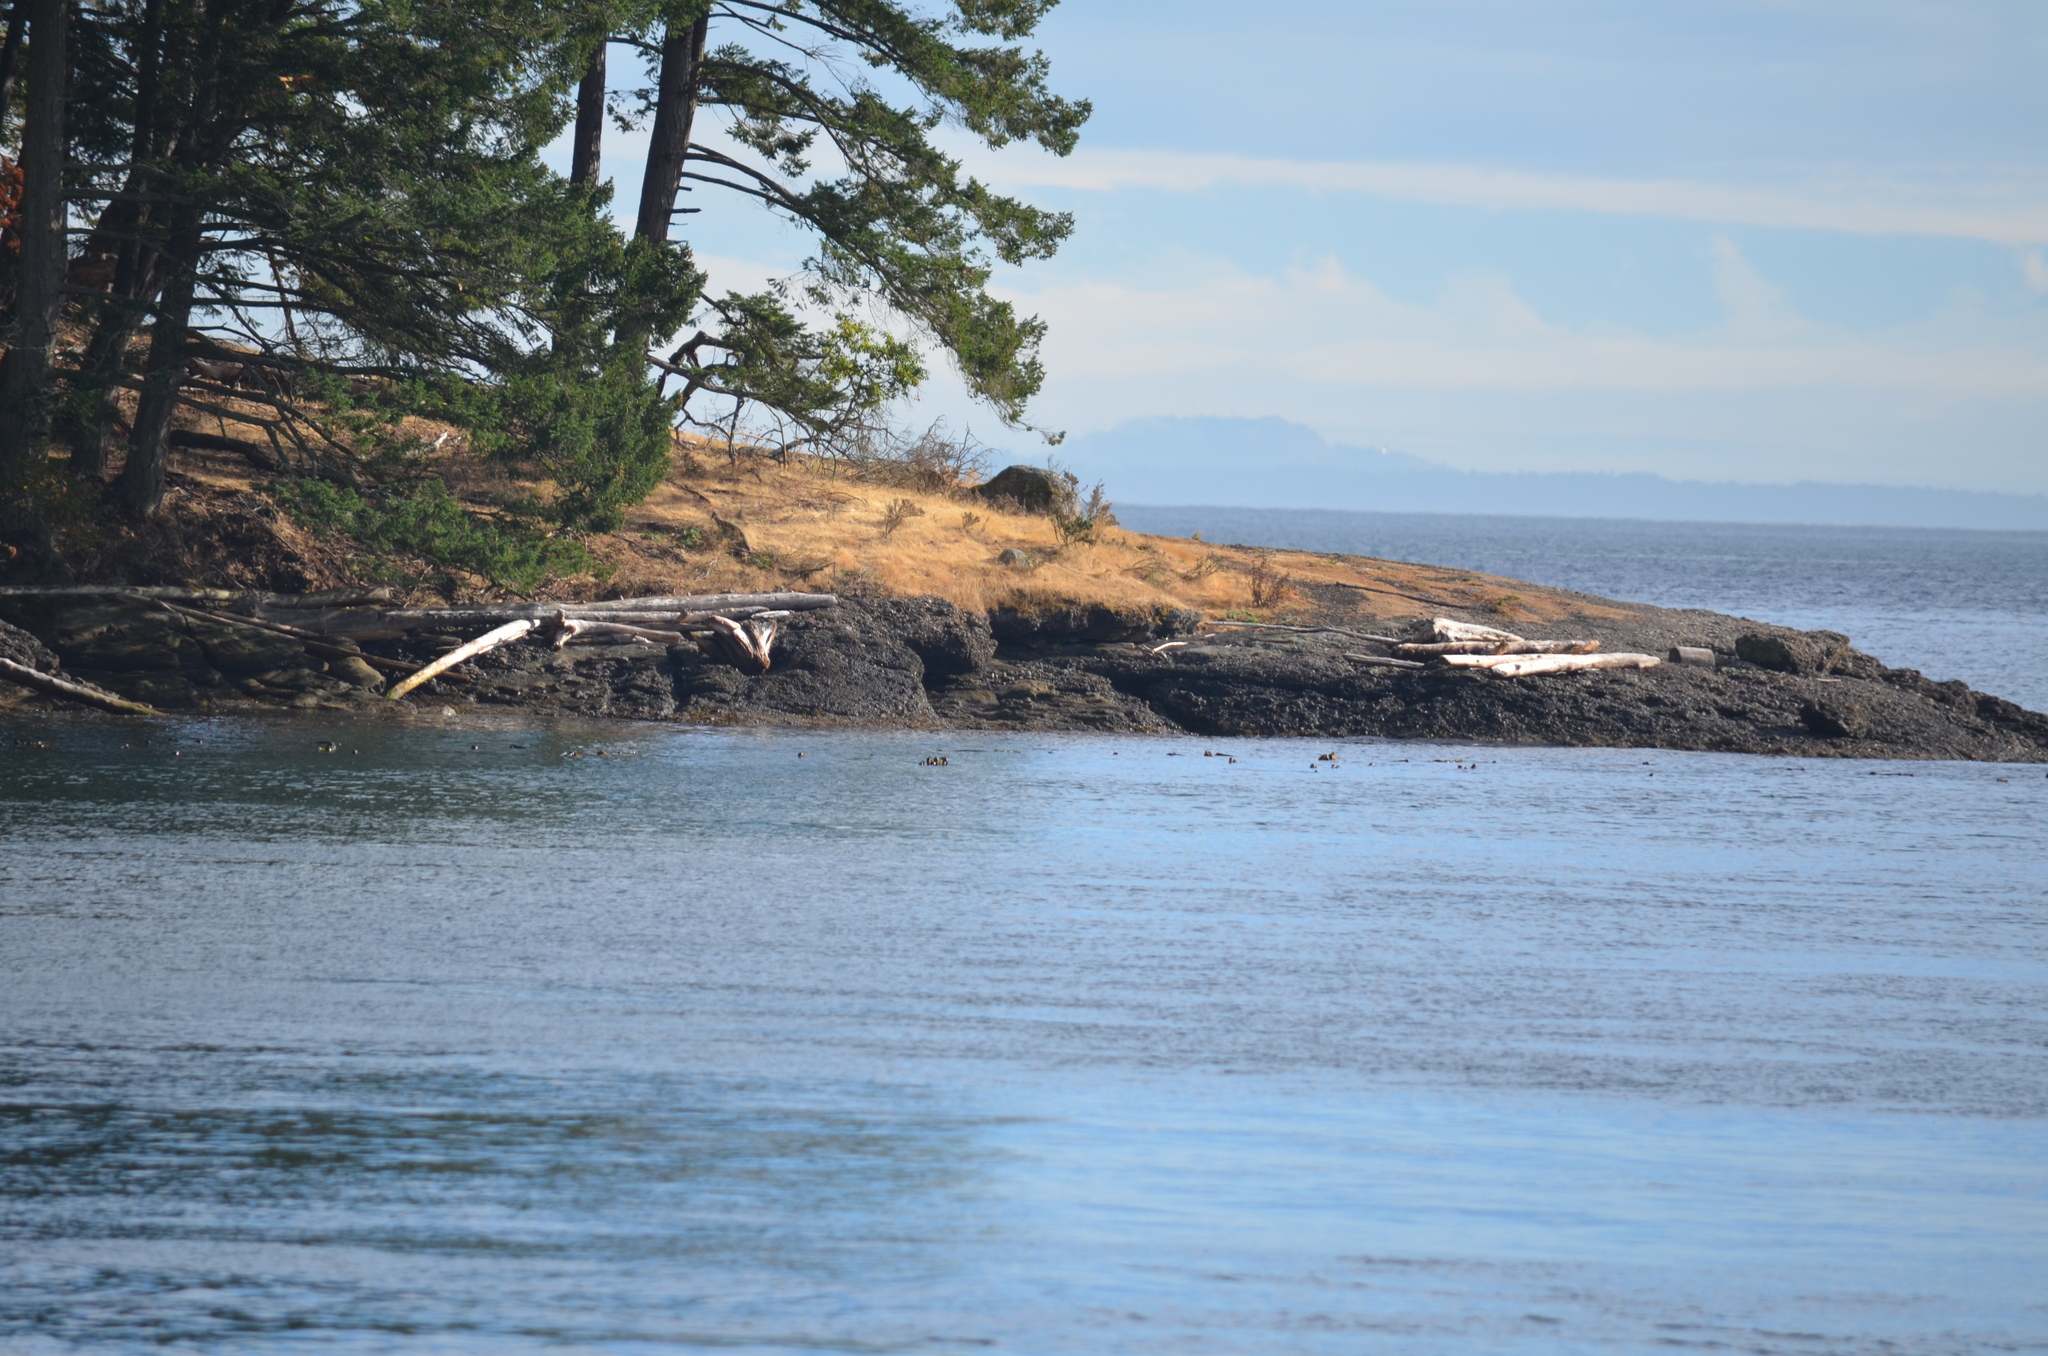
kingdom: Chromista
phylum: Ochrophyta
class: Phaeophyceae
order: Laminariales
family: Laminariaceae
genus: Nereocystis
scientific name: Nereocystis luetkeana
